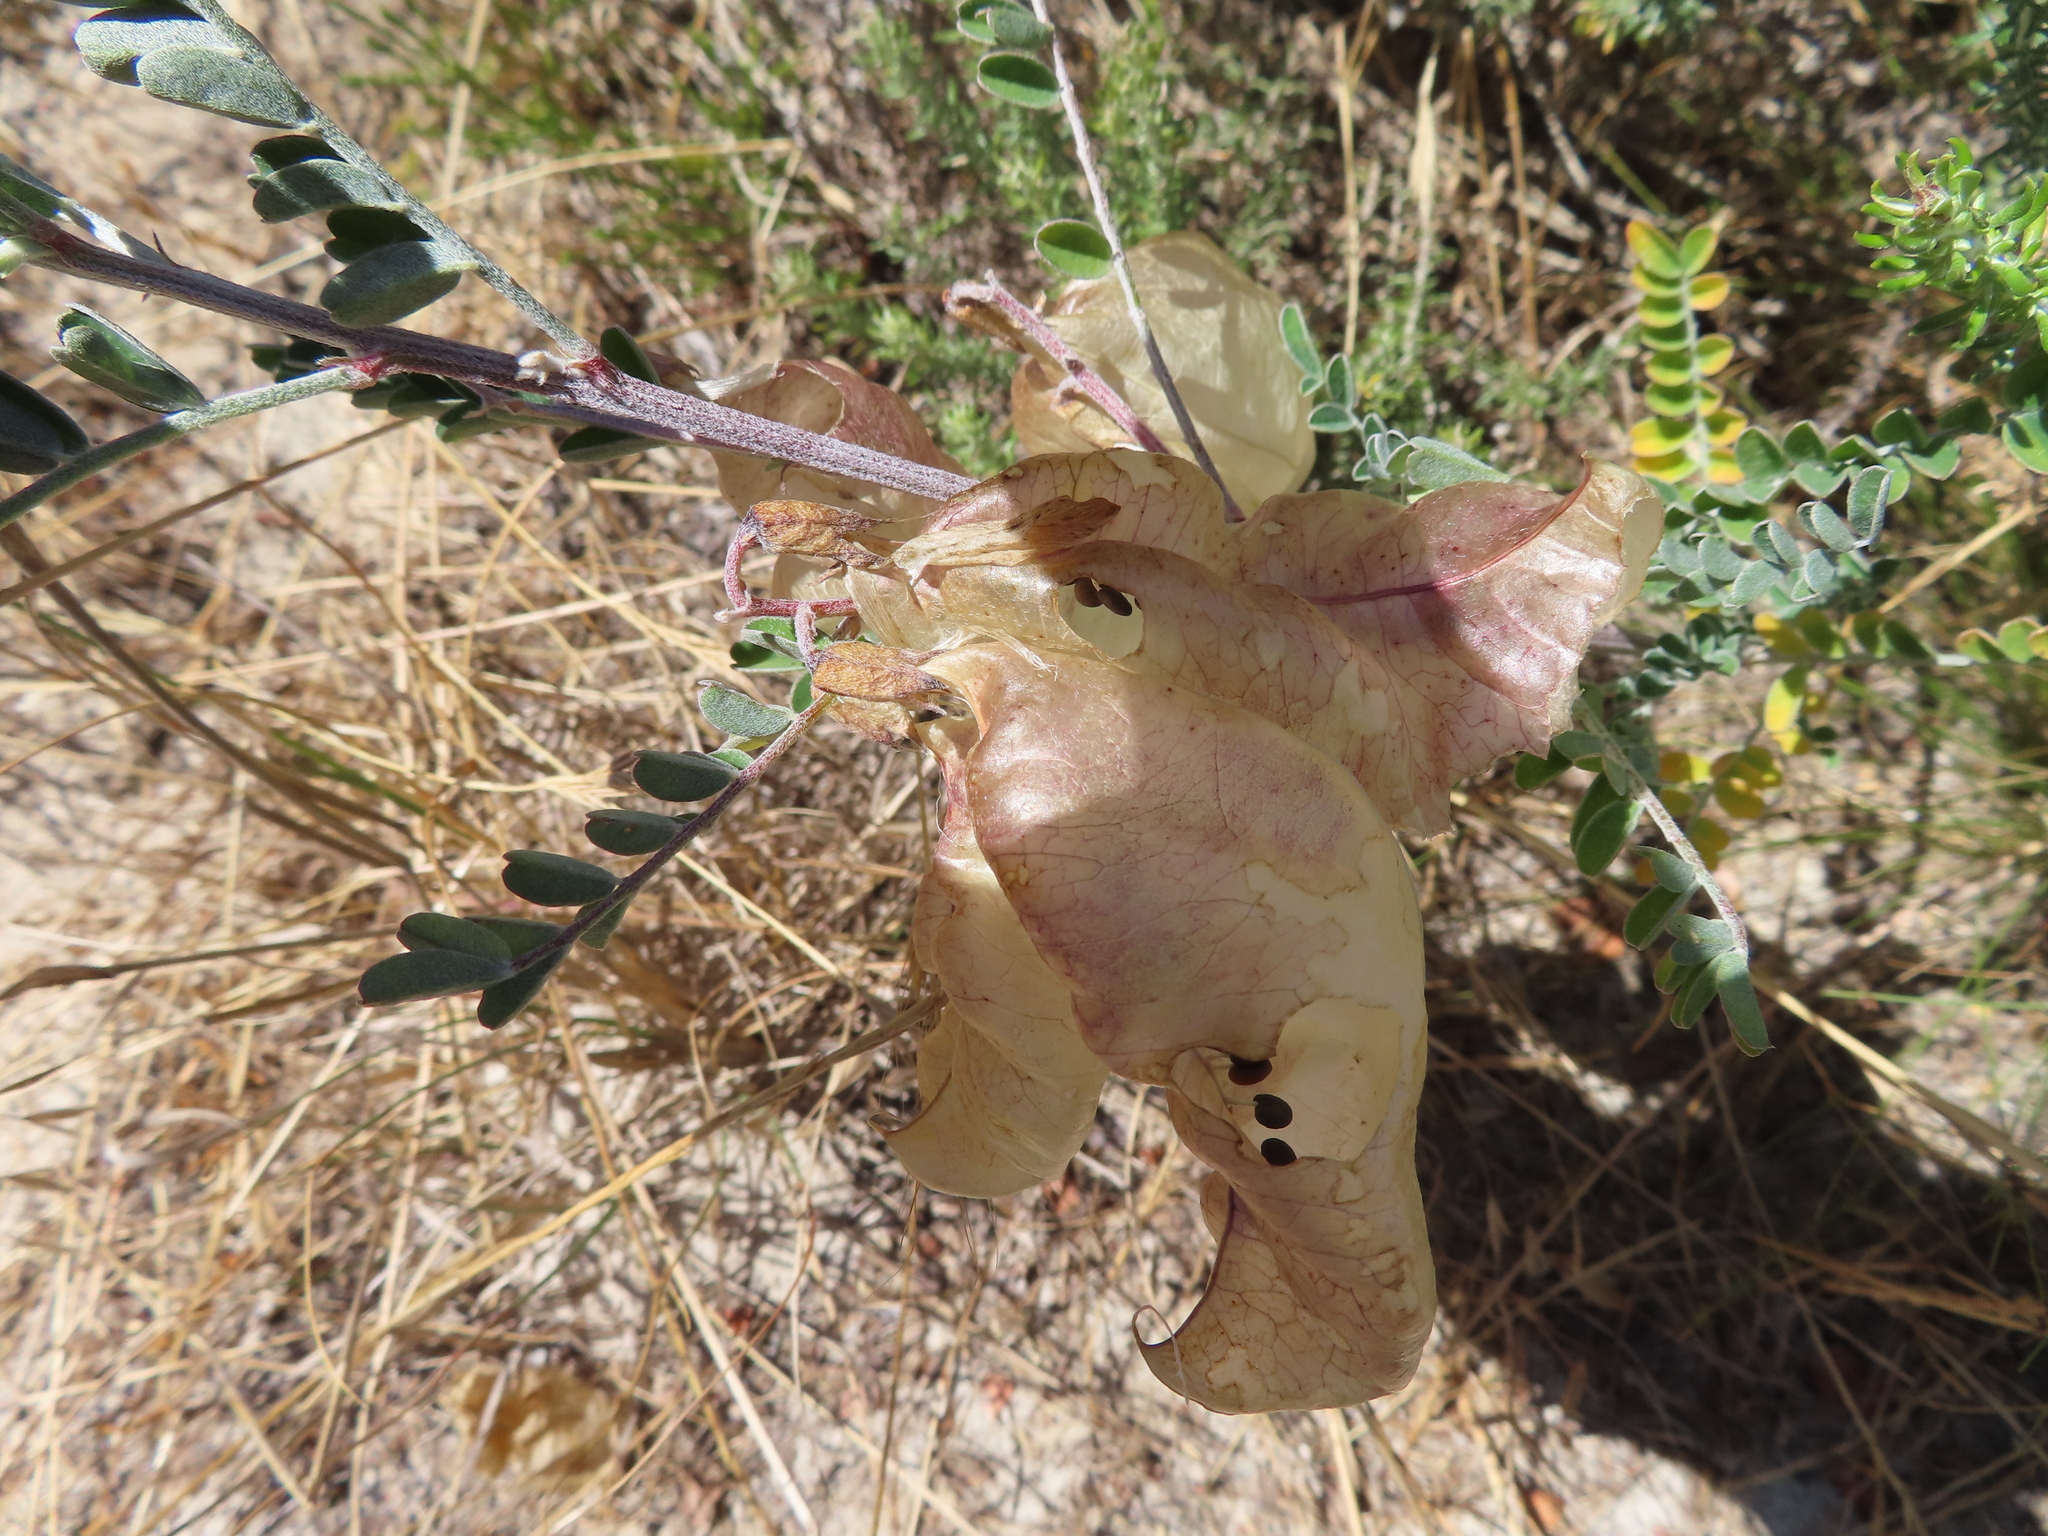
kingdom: Plantae
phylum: Tracheophyta
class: Magnoliopsida
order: Fabales
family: Fabaceae
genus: Lessertia
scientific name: Lessertia frutescens
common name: Balloon-pea
